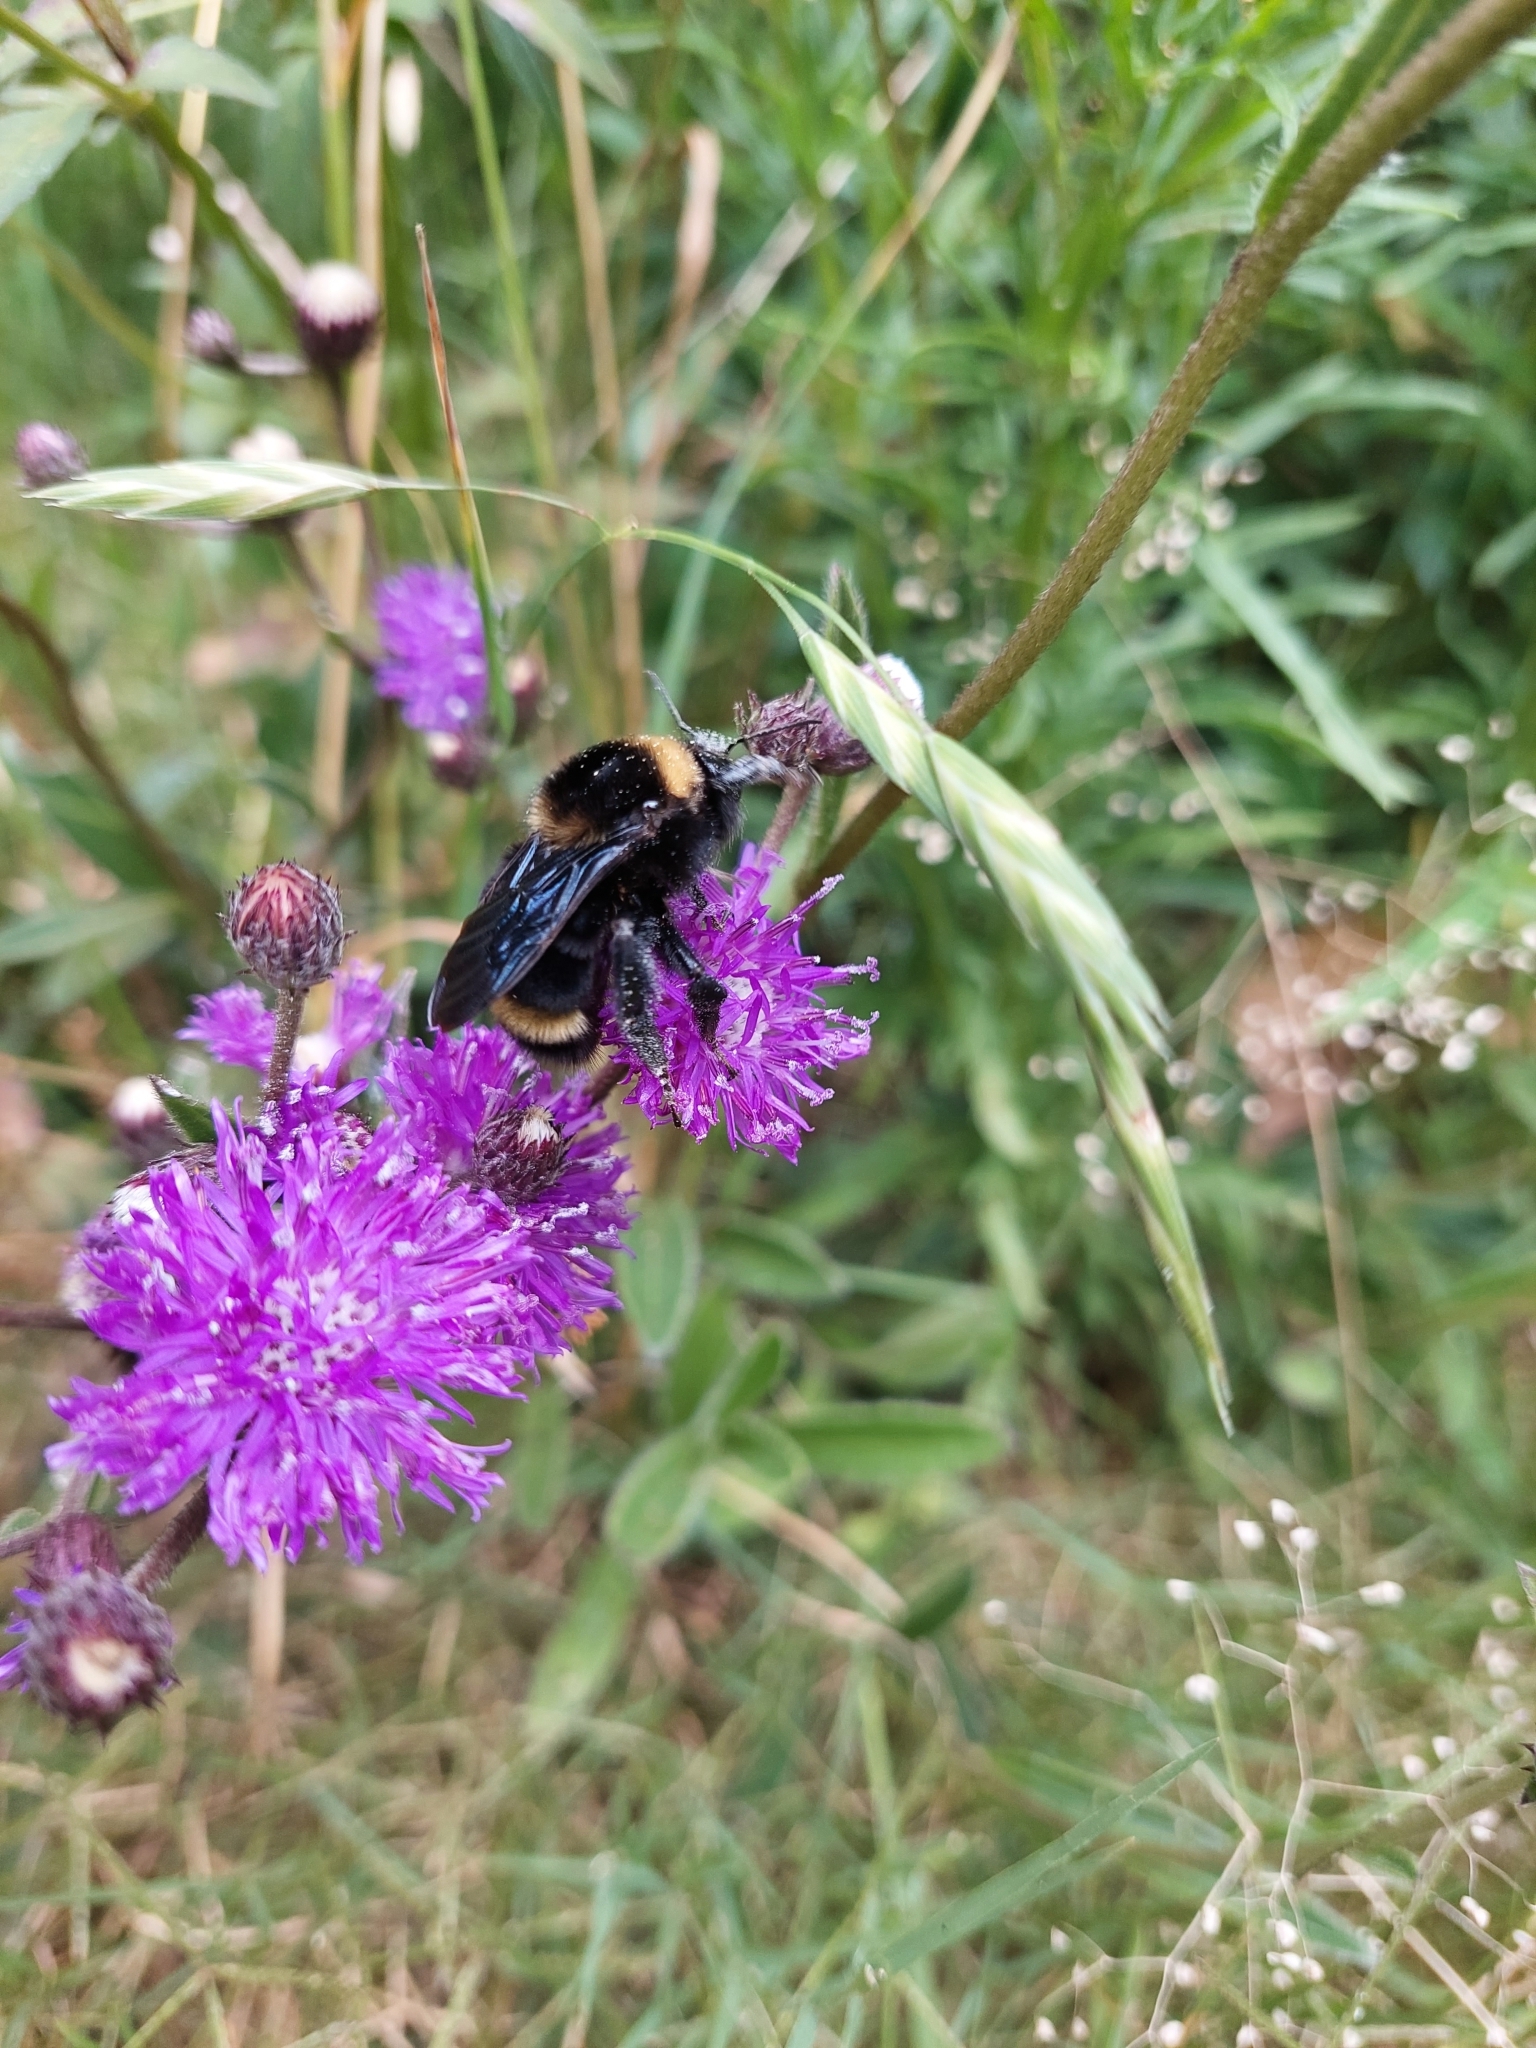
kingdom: Animalia
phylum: Arthropoda
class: Insecta
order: Hymenoptera
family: Apidae
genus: Bombus
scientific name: Bombus pauloensis
